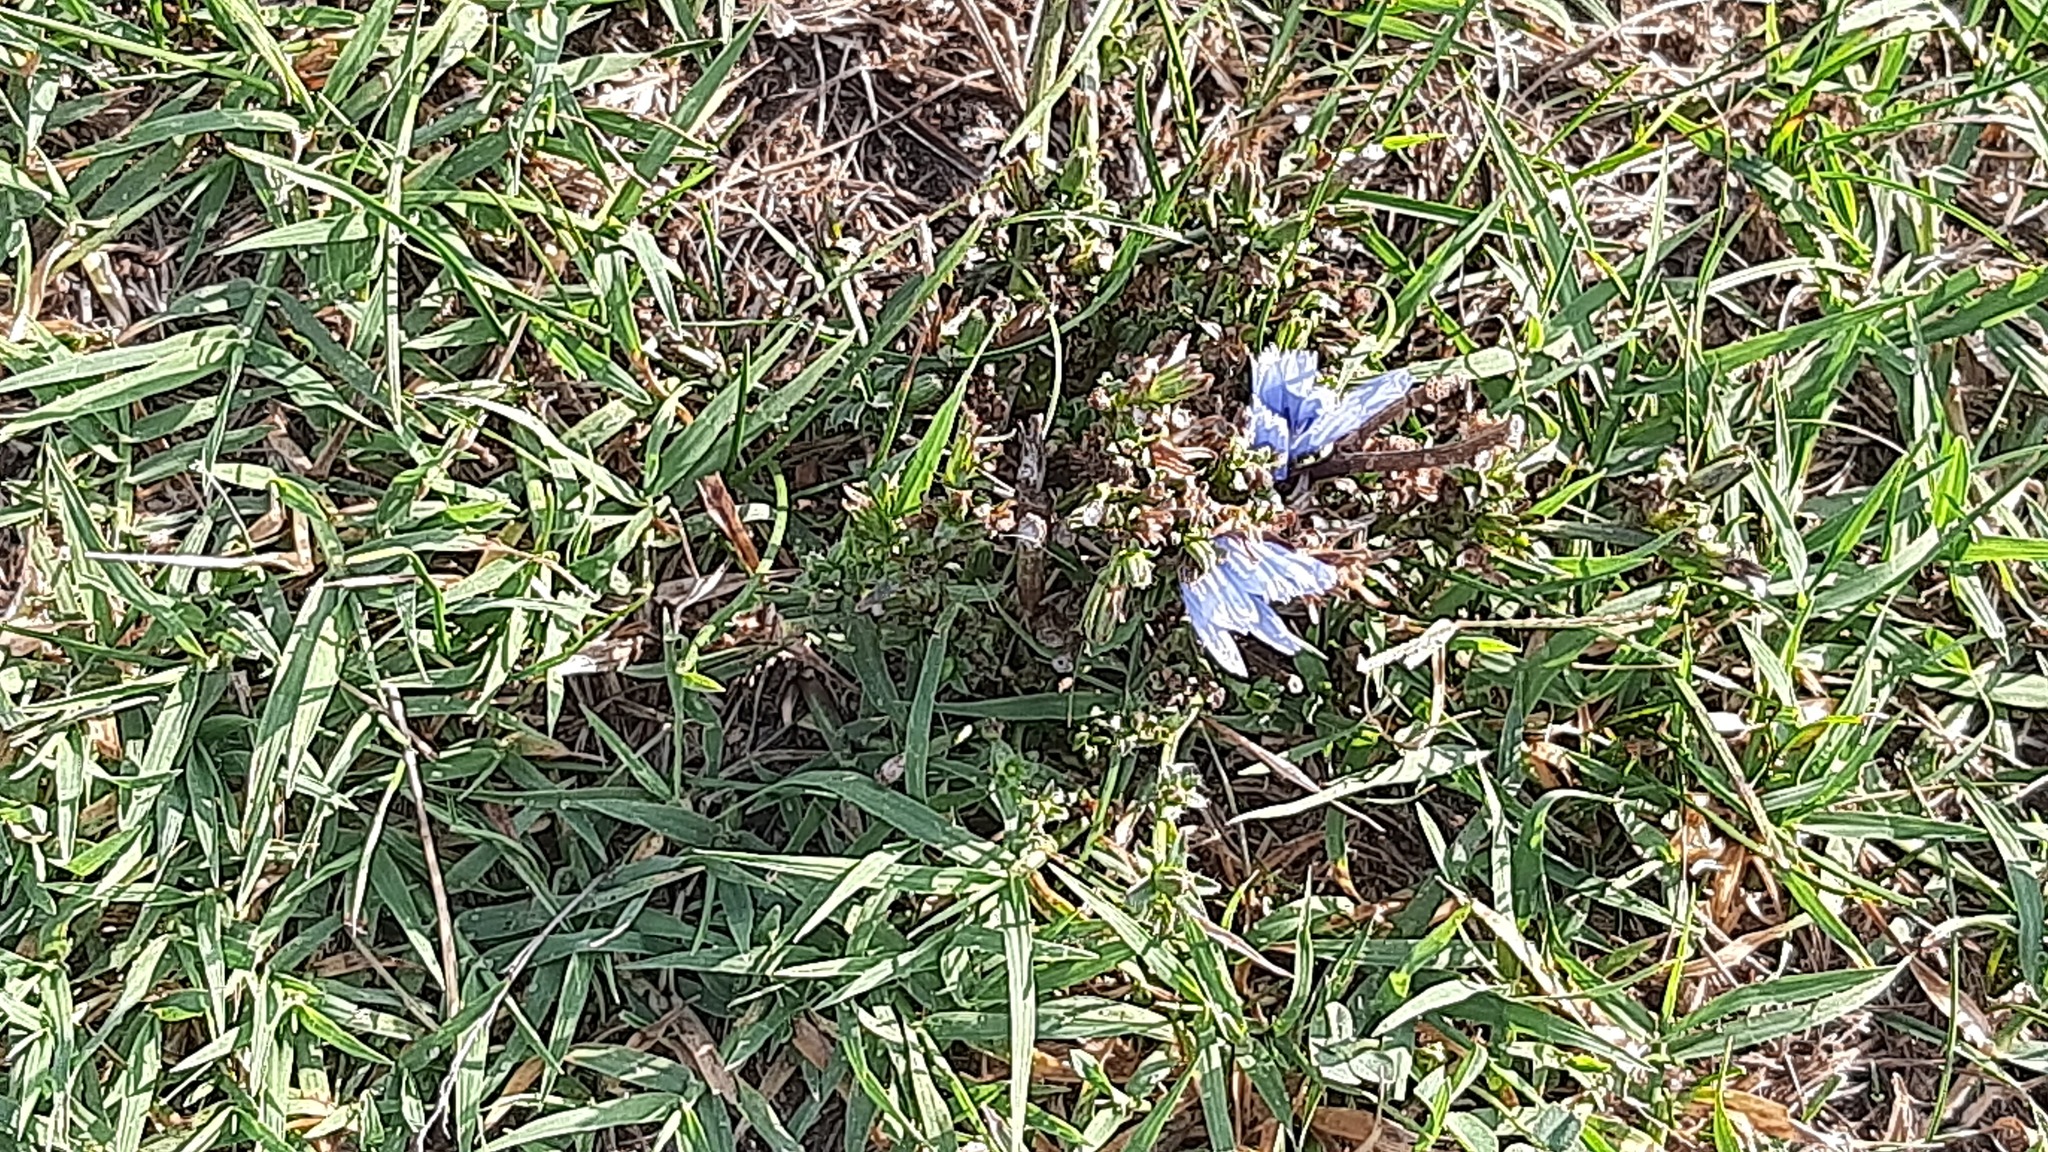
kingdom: Plantae
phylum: Tracheophyta
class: Magnoliopsida
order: Asterales
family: Asteraceae
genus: Cichorium
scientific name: Cichorium intybus
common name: Chicory
